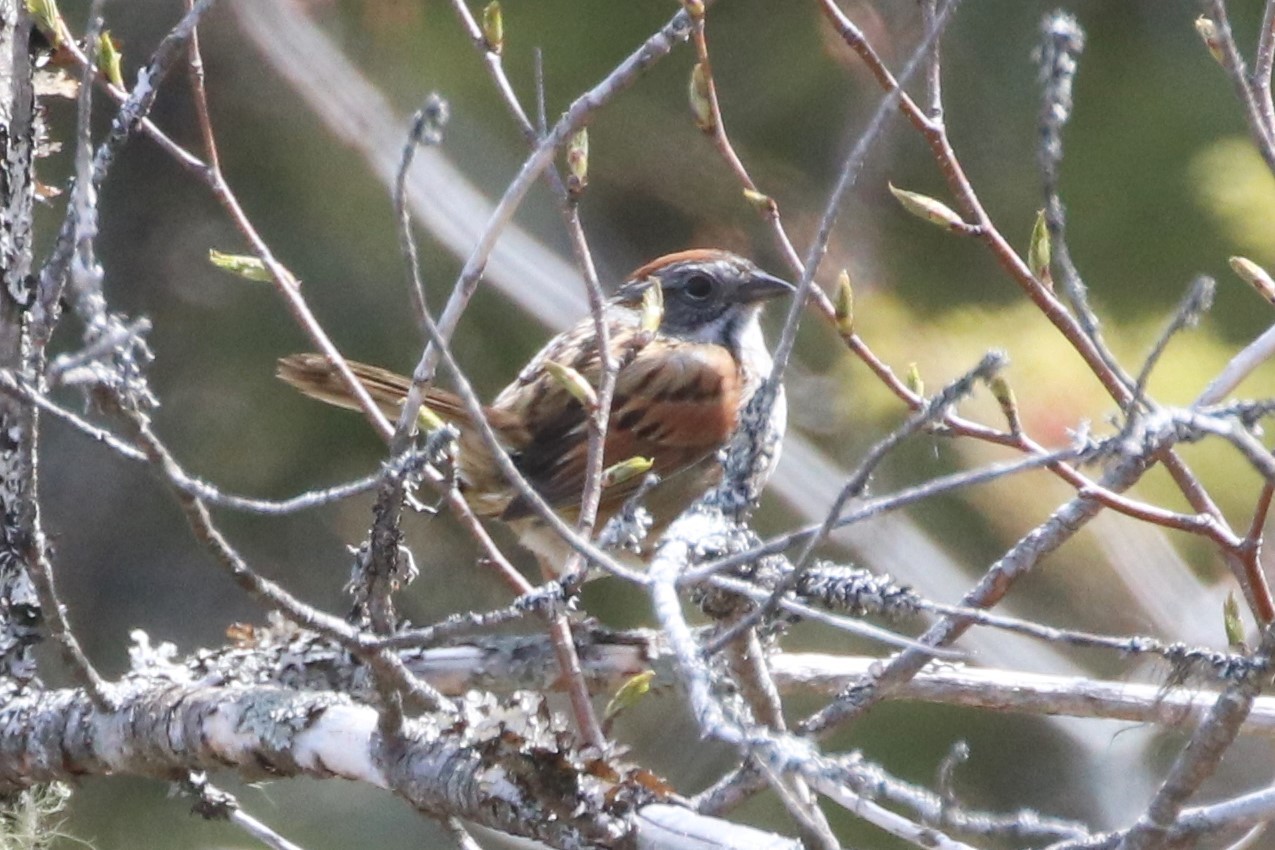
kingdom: Animalia
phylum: Chordata
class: Aves
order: Passeriformes
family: Passerellidae
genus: Melospiza
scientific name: Melospiza georgiana
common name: Swamp sparrow
